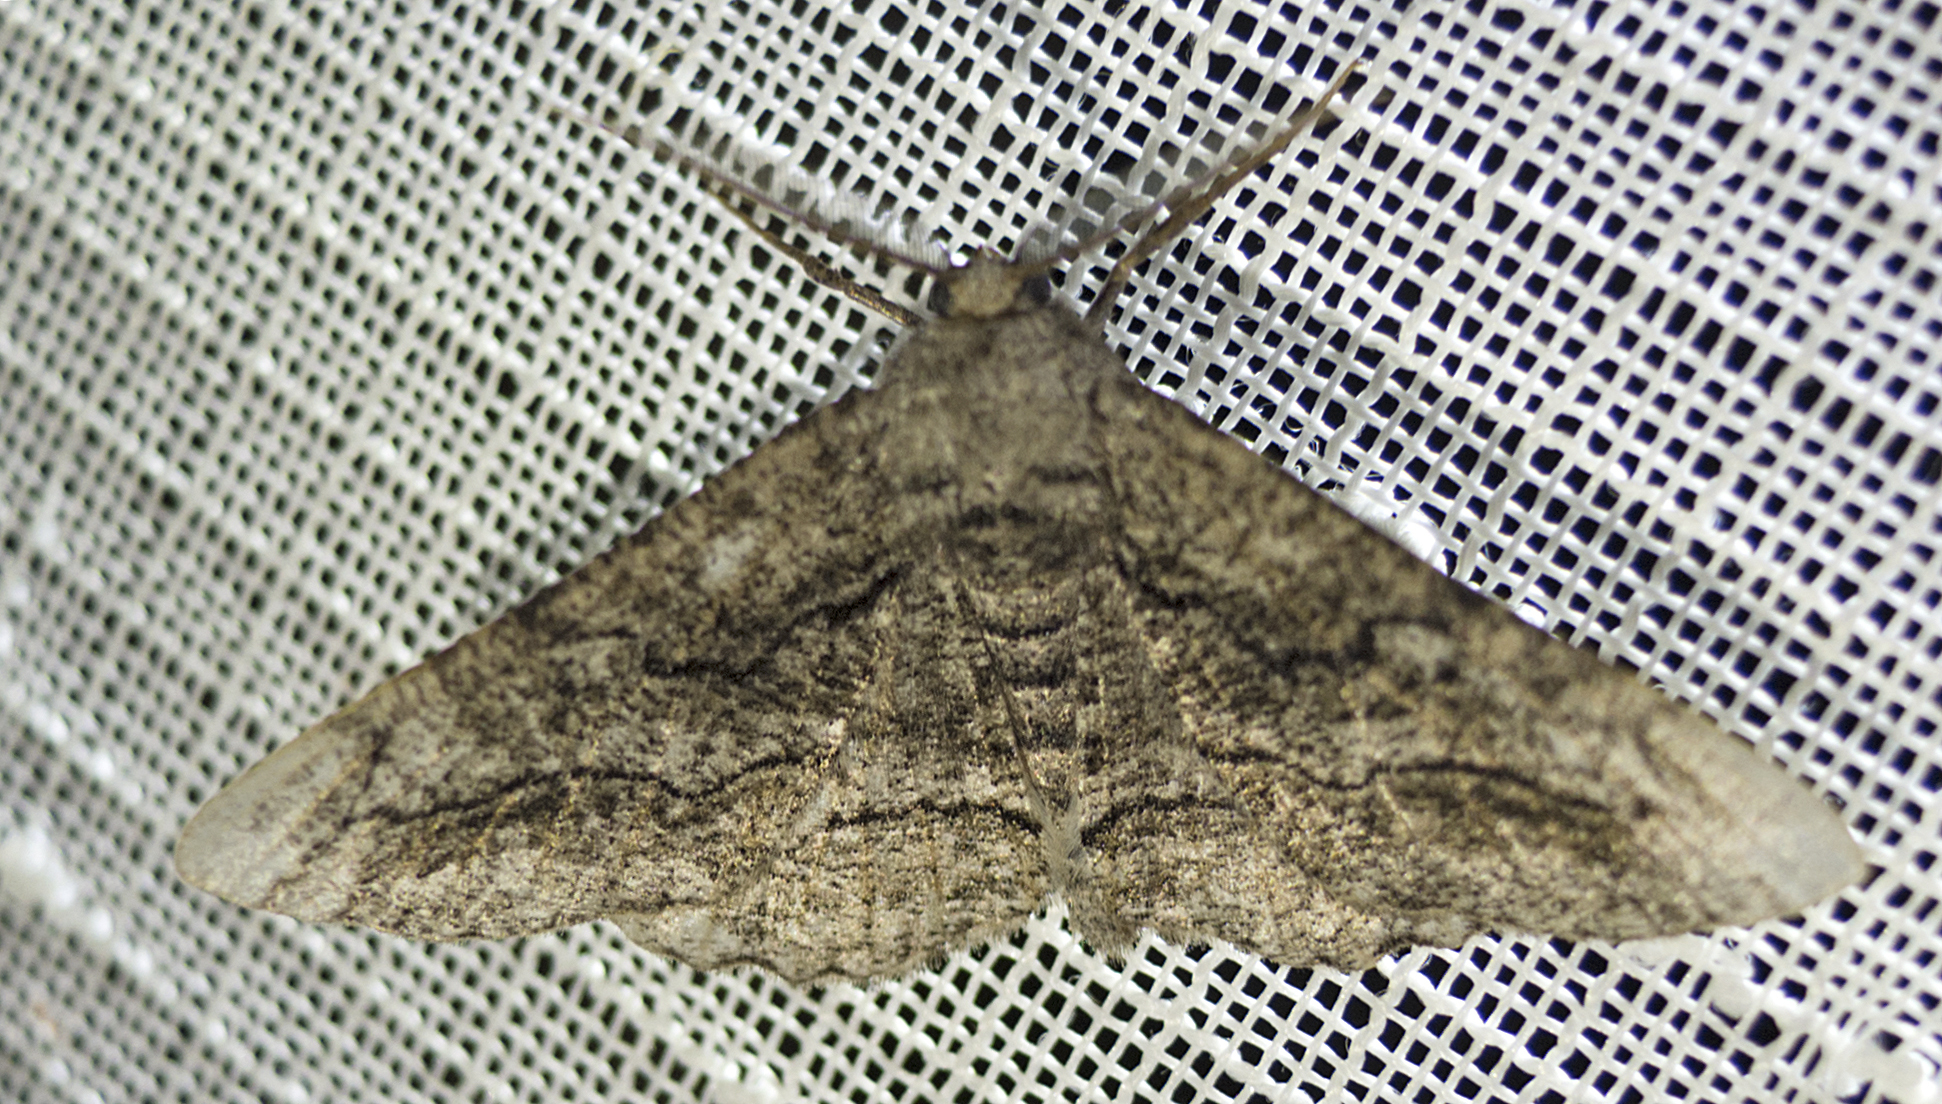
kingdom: Animalia
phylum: Arthropoda
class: Insecta
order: Lepidoptera
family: Geometridae
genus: Synopsia
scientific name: Synopsia sociaria
